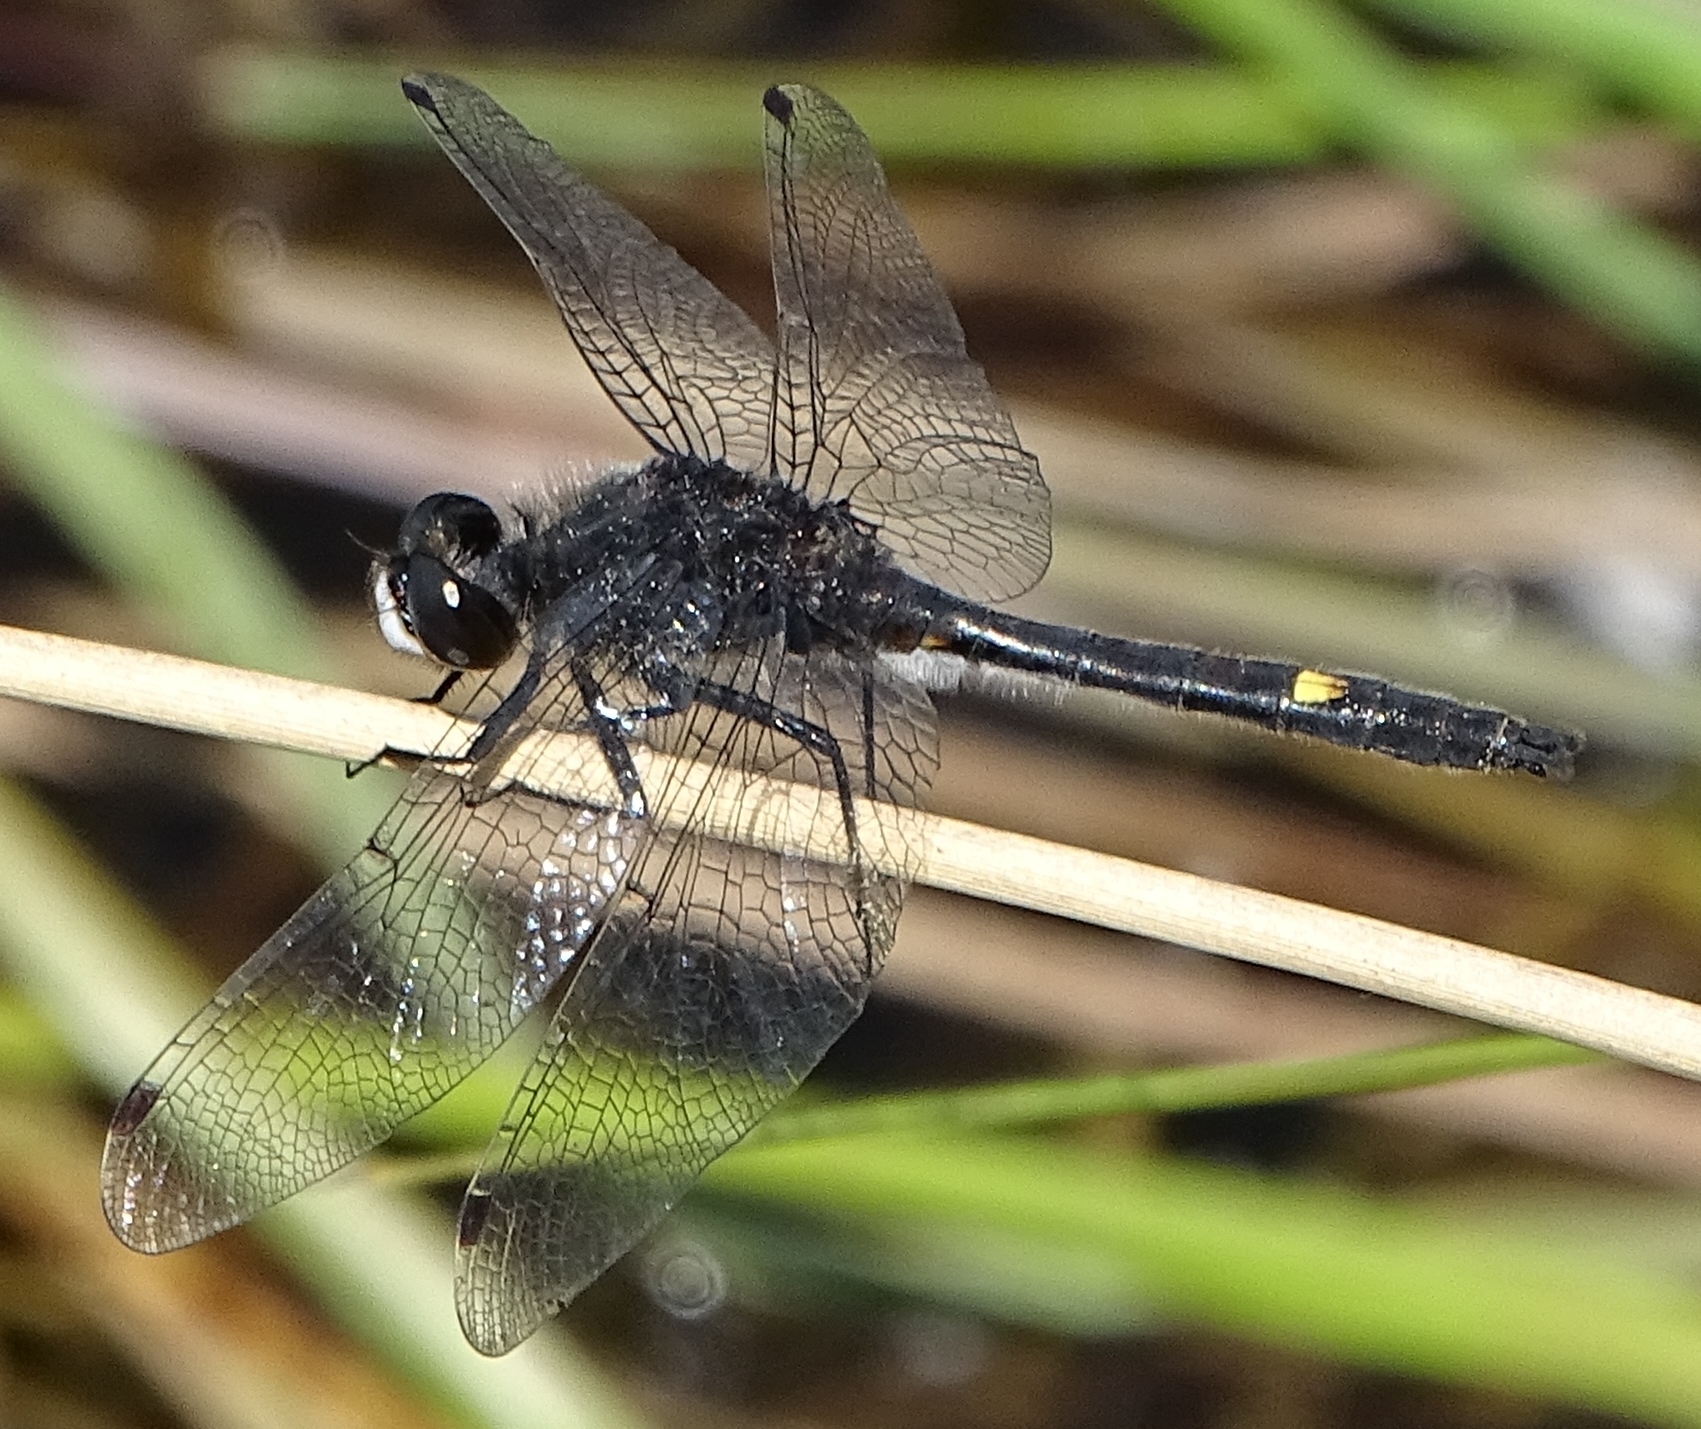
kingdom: Animalia
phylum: Arthropoda
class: Insecta
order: Odonata
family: Libellulidae
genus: Leucorrhinia
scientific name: Leucorrhinia intacta
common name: Dot-tailed whiteface
